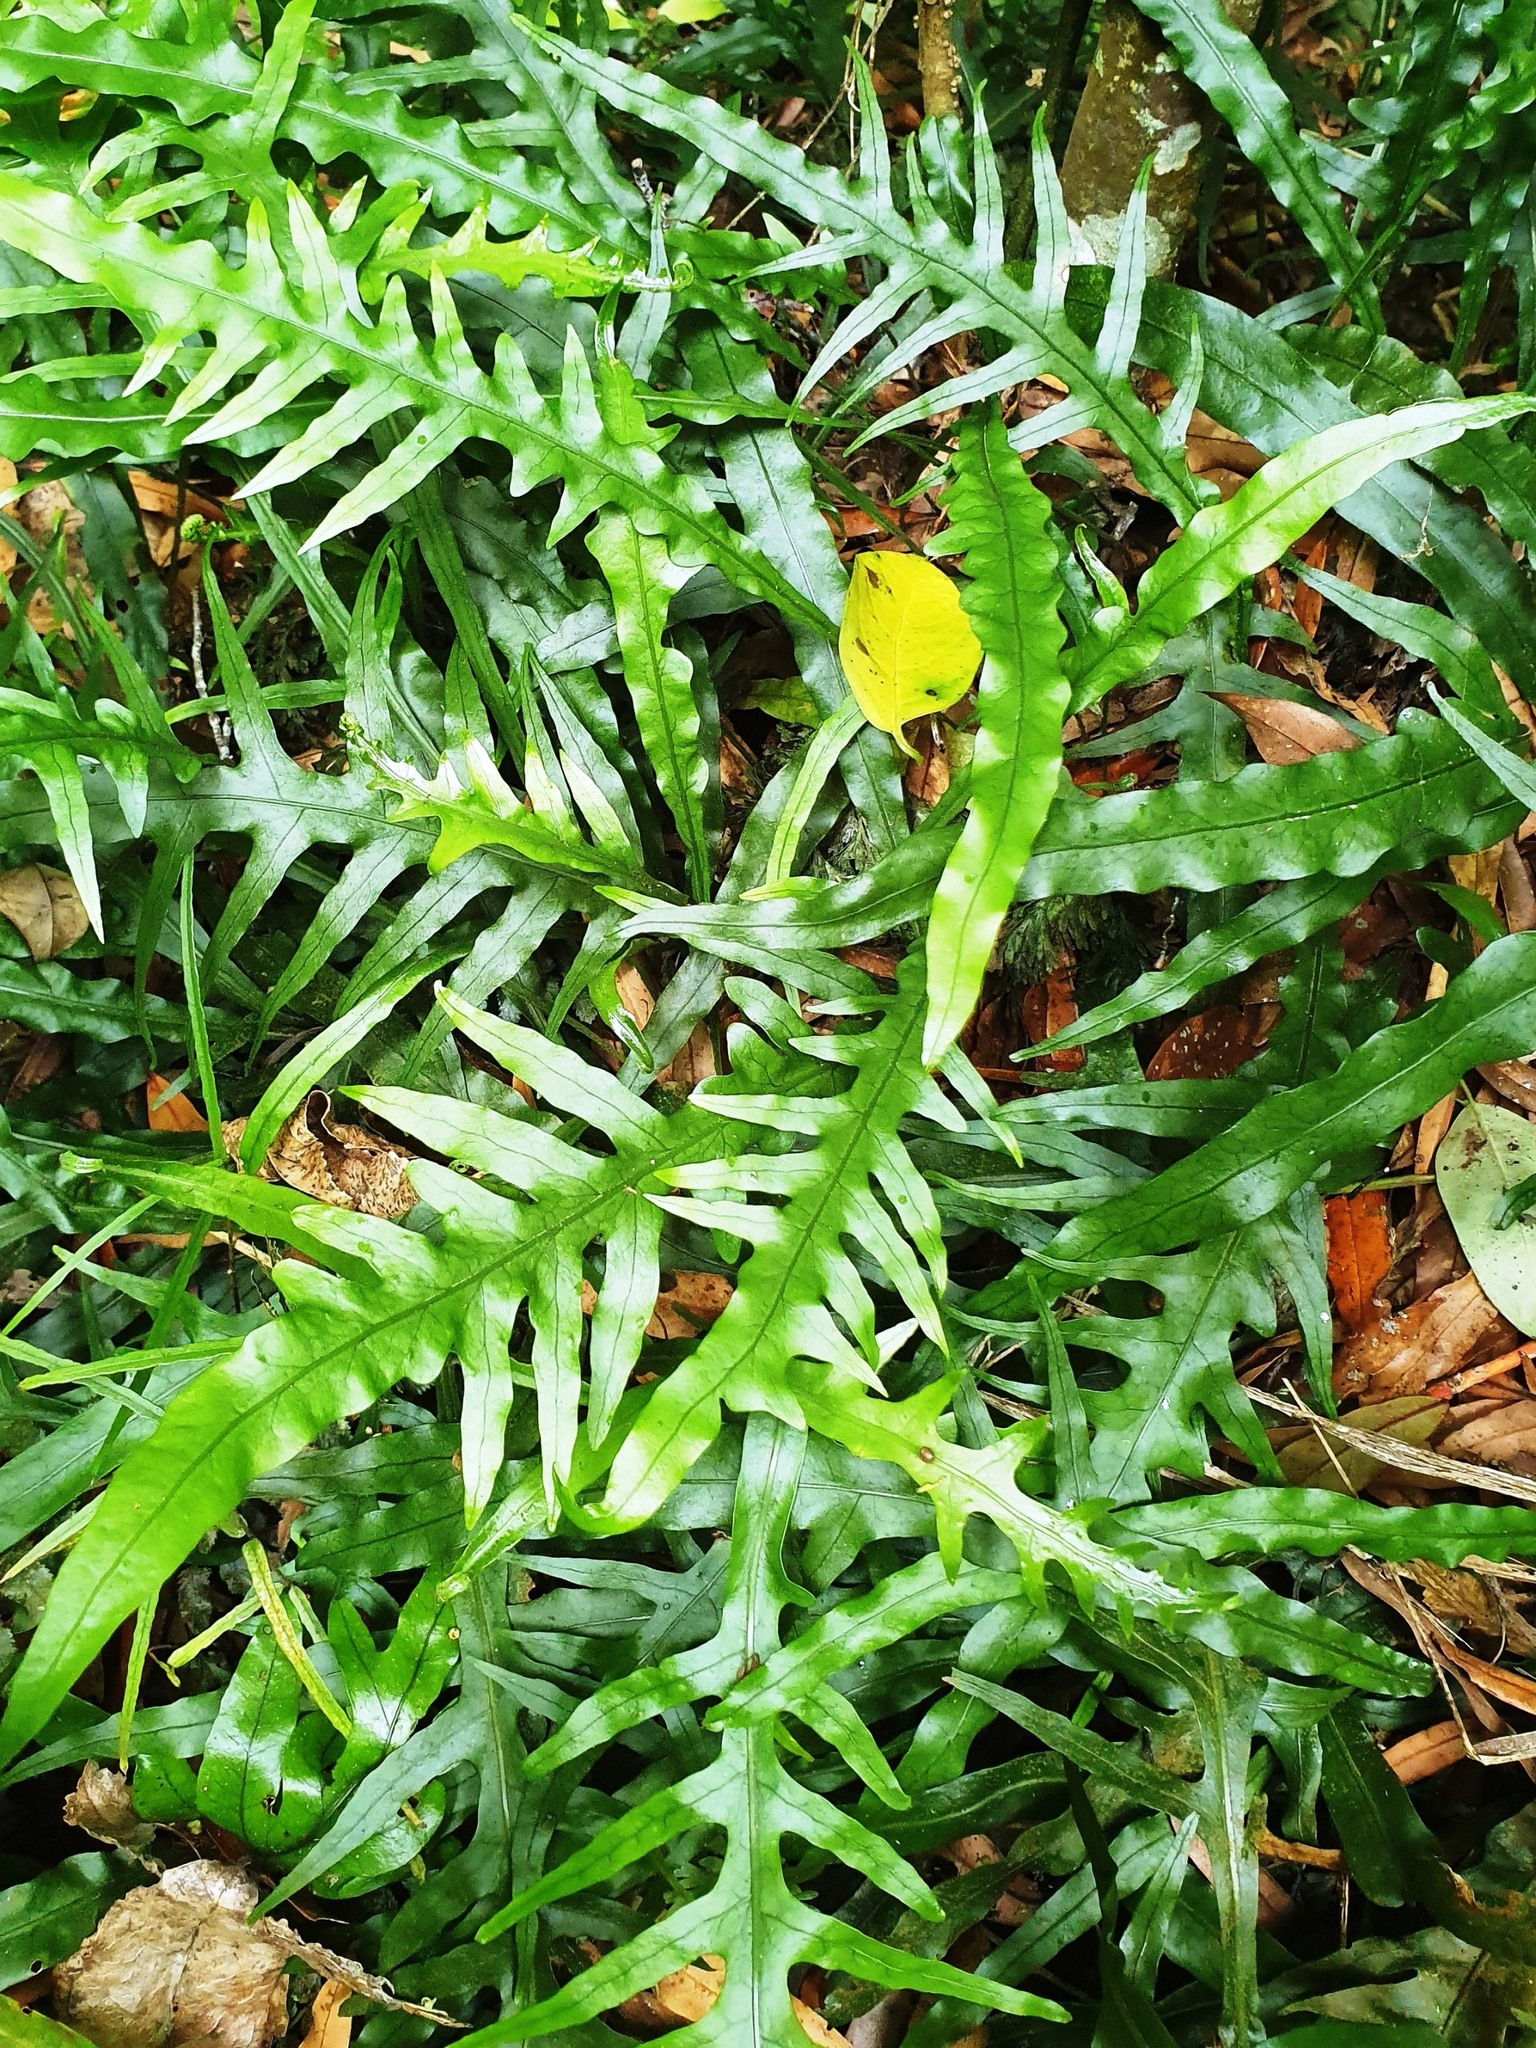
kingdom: Plantae
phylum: Tracheophyta
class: Polypodiopsida
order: Polypodiales
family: Polypodiaceae
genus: Lecanopteris
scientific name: Lecanopteris scandens
